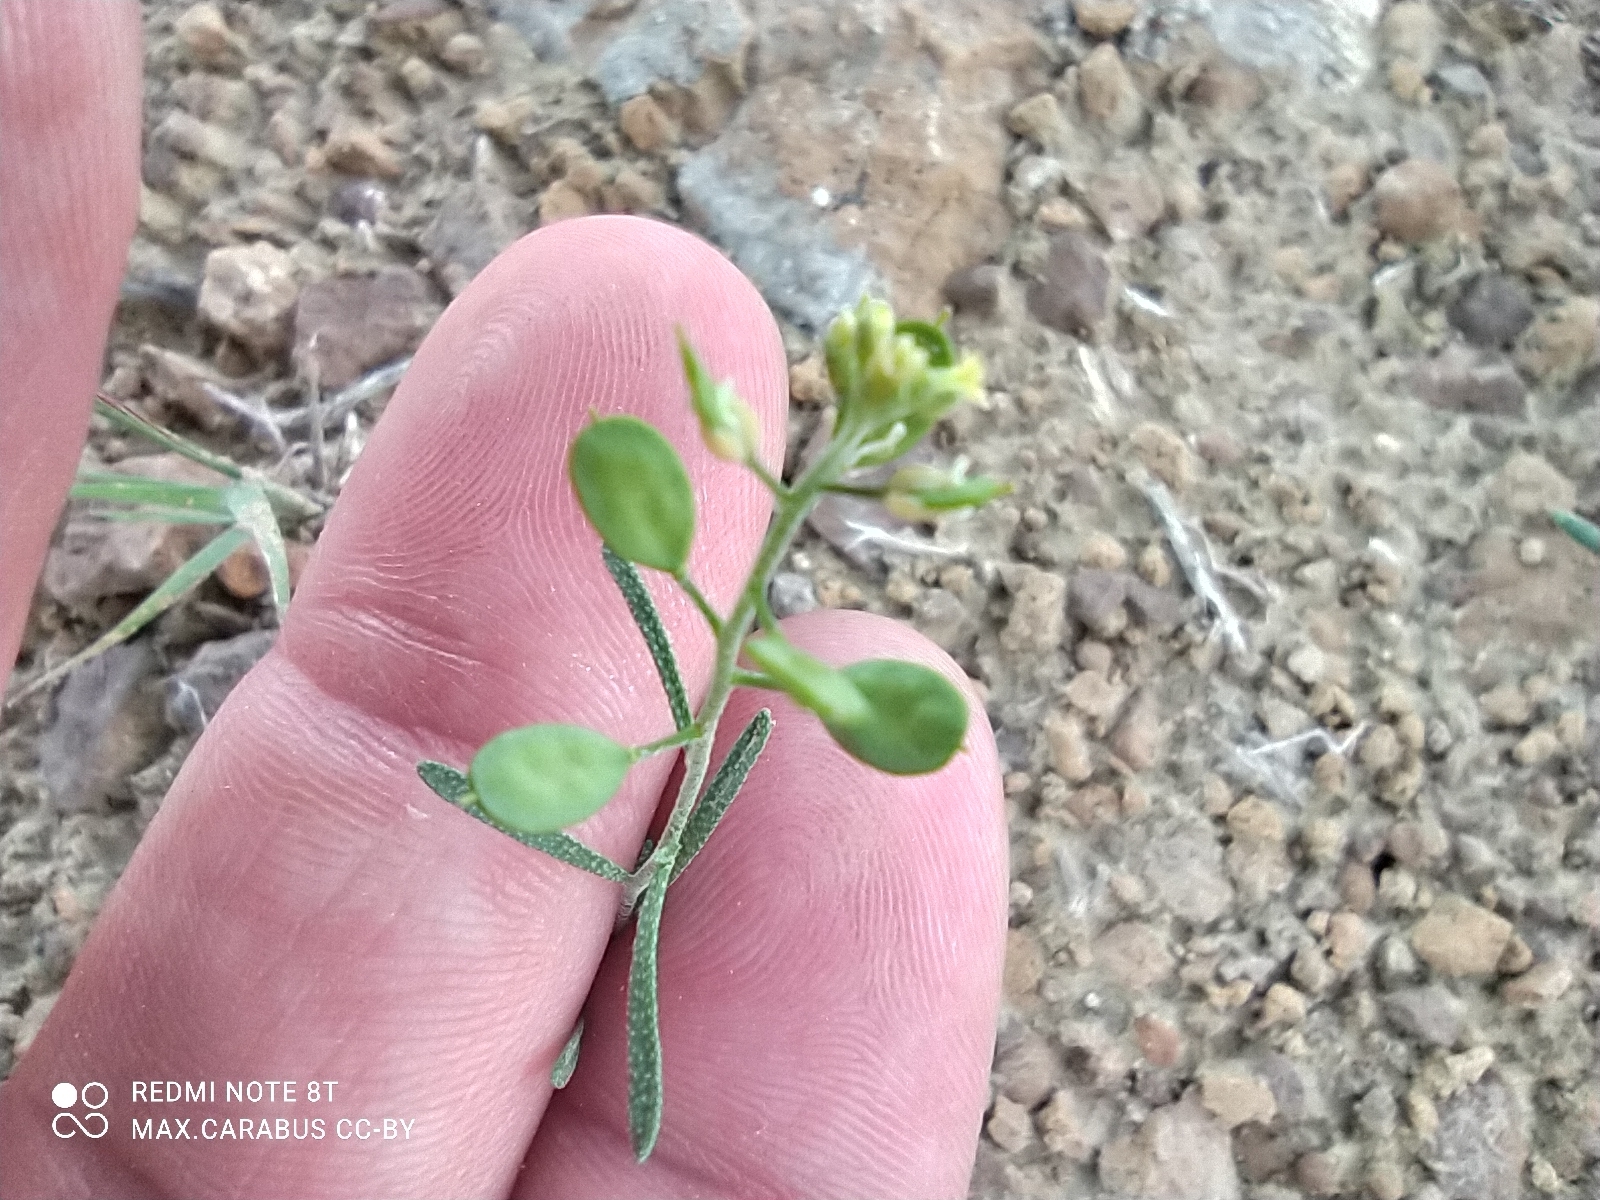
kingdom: Plantae
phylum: Tracheophyta
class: Magnoliopsida
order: Brassicales
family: Brassicaceae
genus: Meniocus
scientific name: Meniocus linifolius
